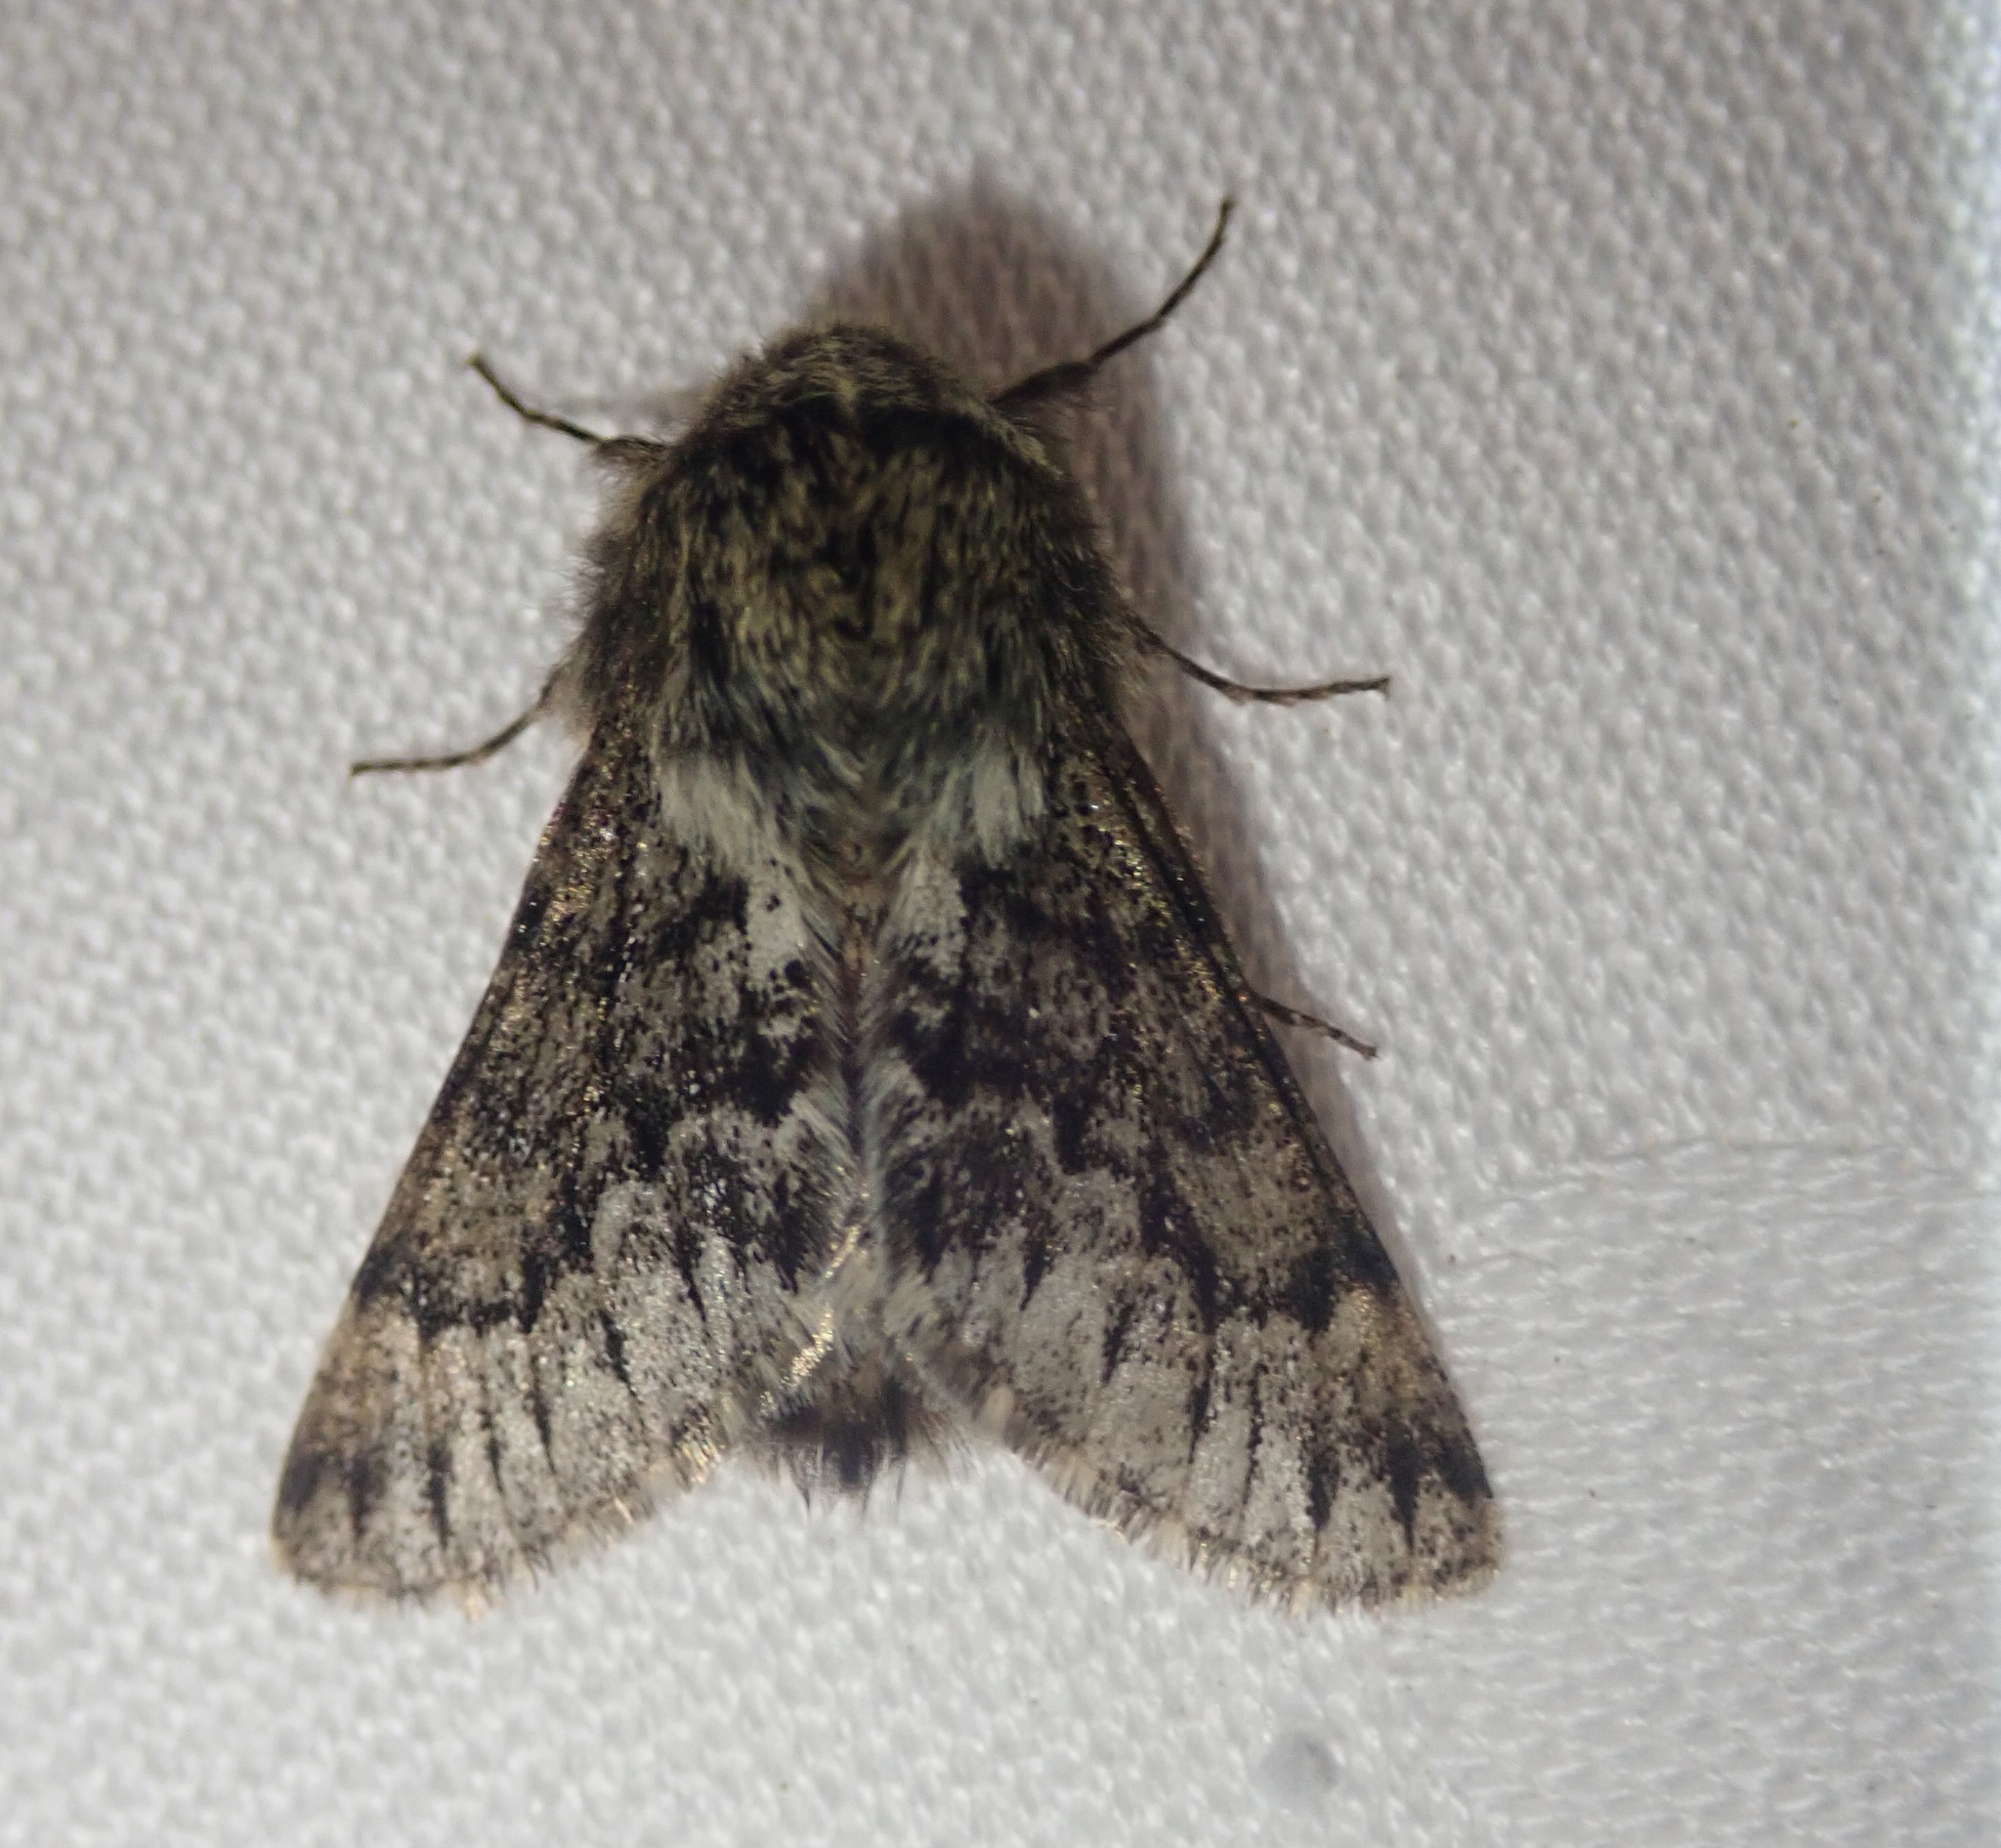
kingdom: Animalia
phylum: Arthropoda
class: Insecta
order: Lepidoptera
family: Geometridae
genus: Apocheima
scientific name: Apocheima hispidaria
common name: Small brindled beauty
